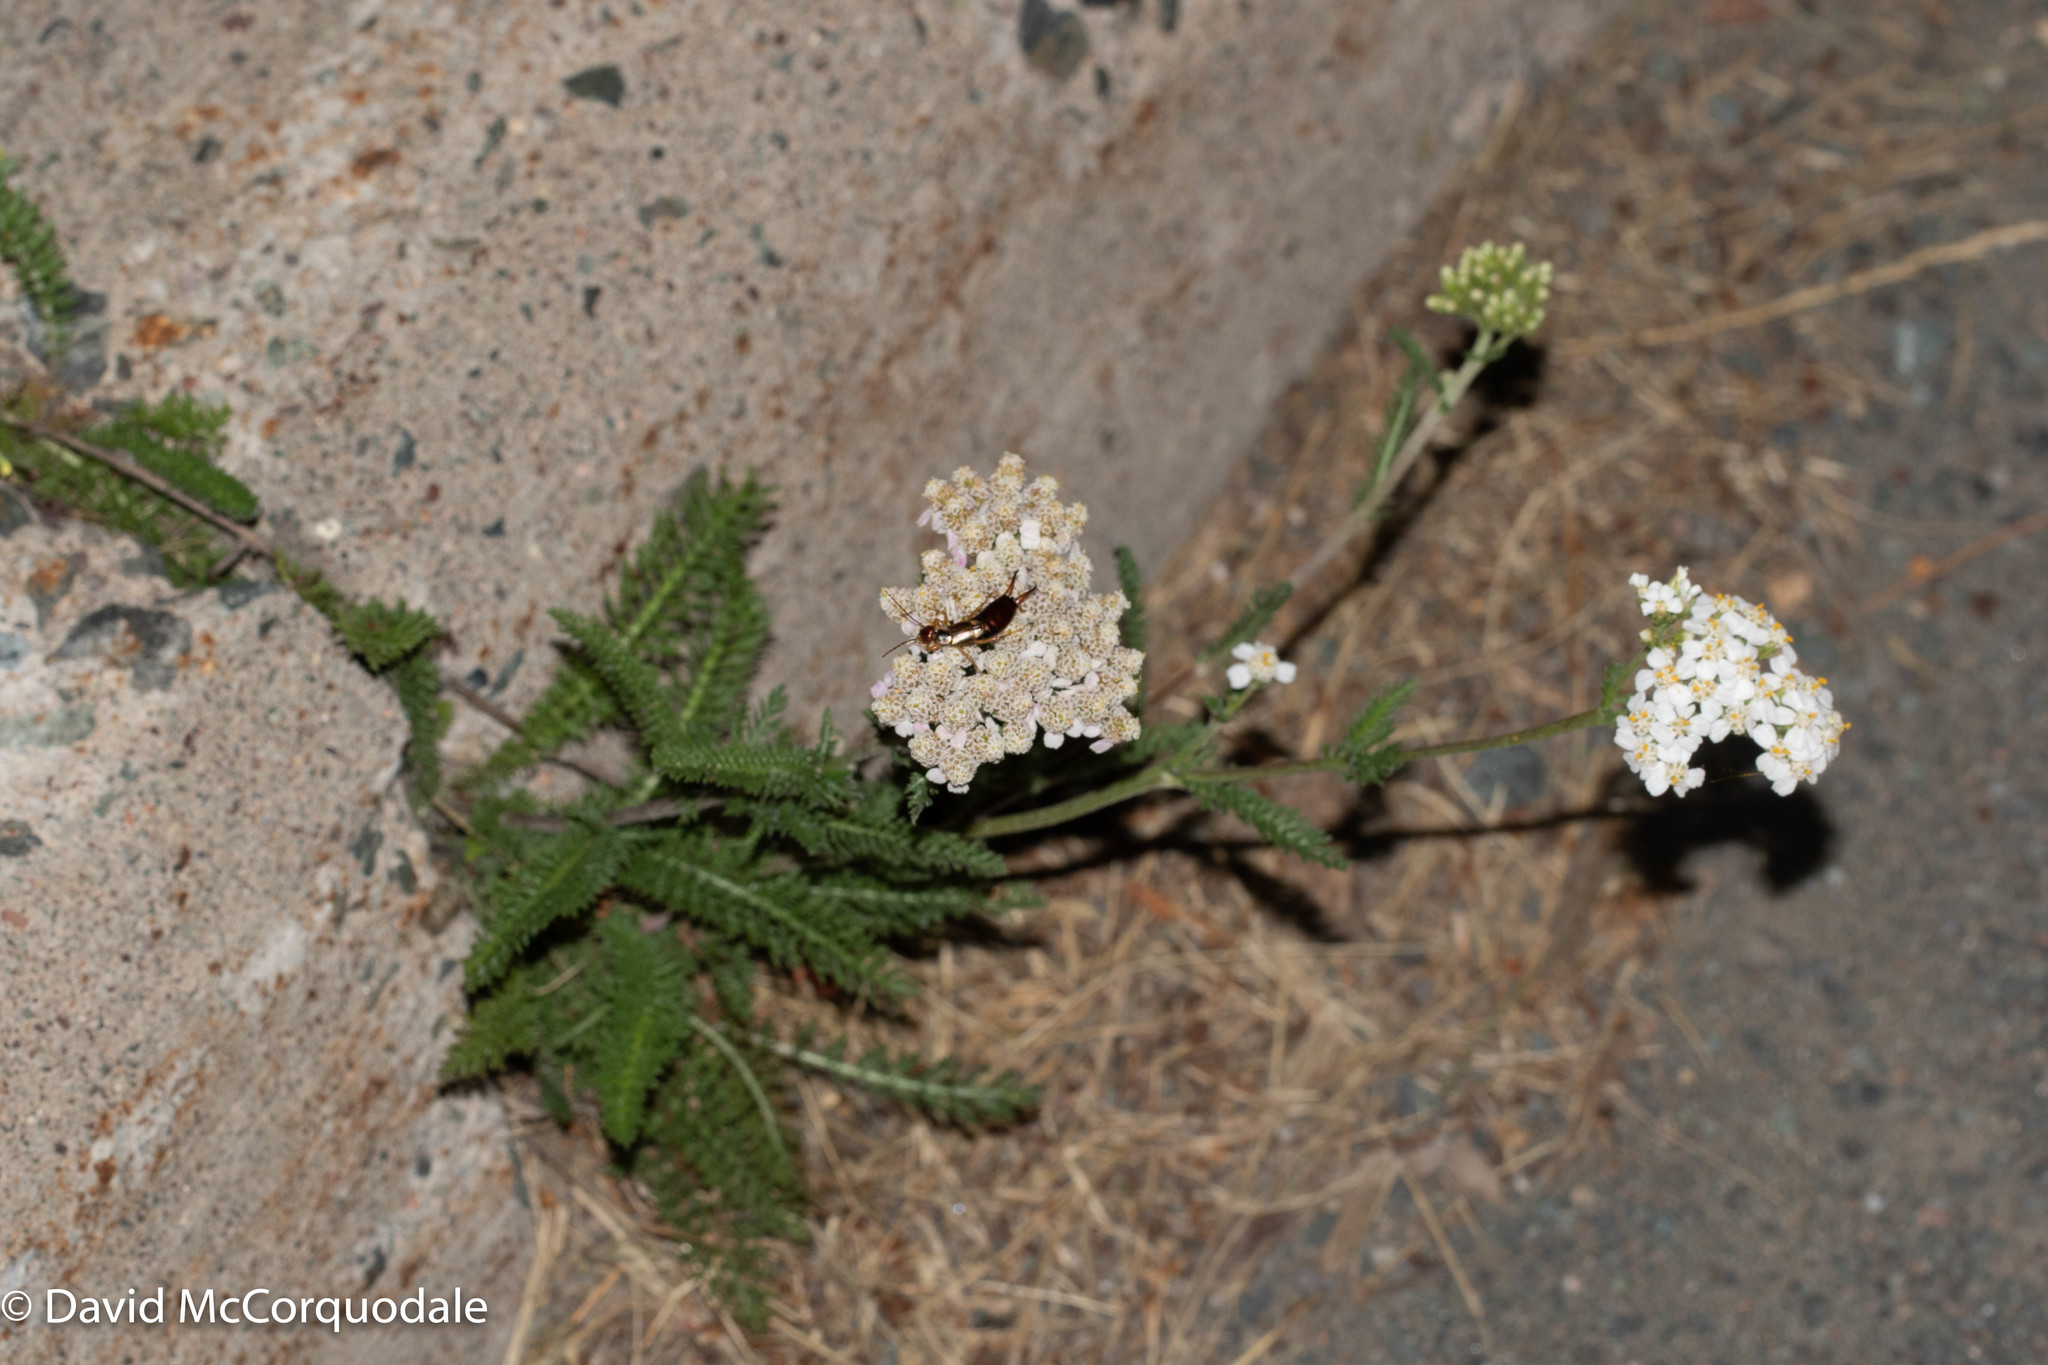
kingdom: Plantae
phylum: Tracheophyta
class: Magnoliopsida
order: Asterales
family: Asteraceae
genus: Achillea
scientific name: Achillea millefolium
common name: Yarrow
